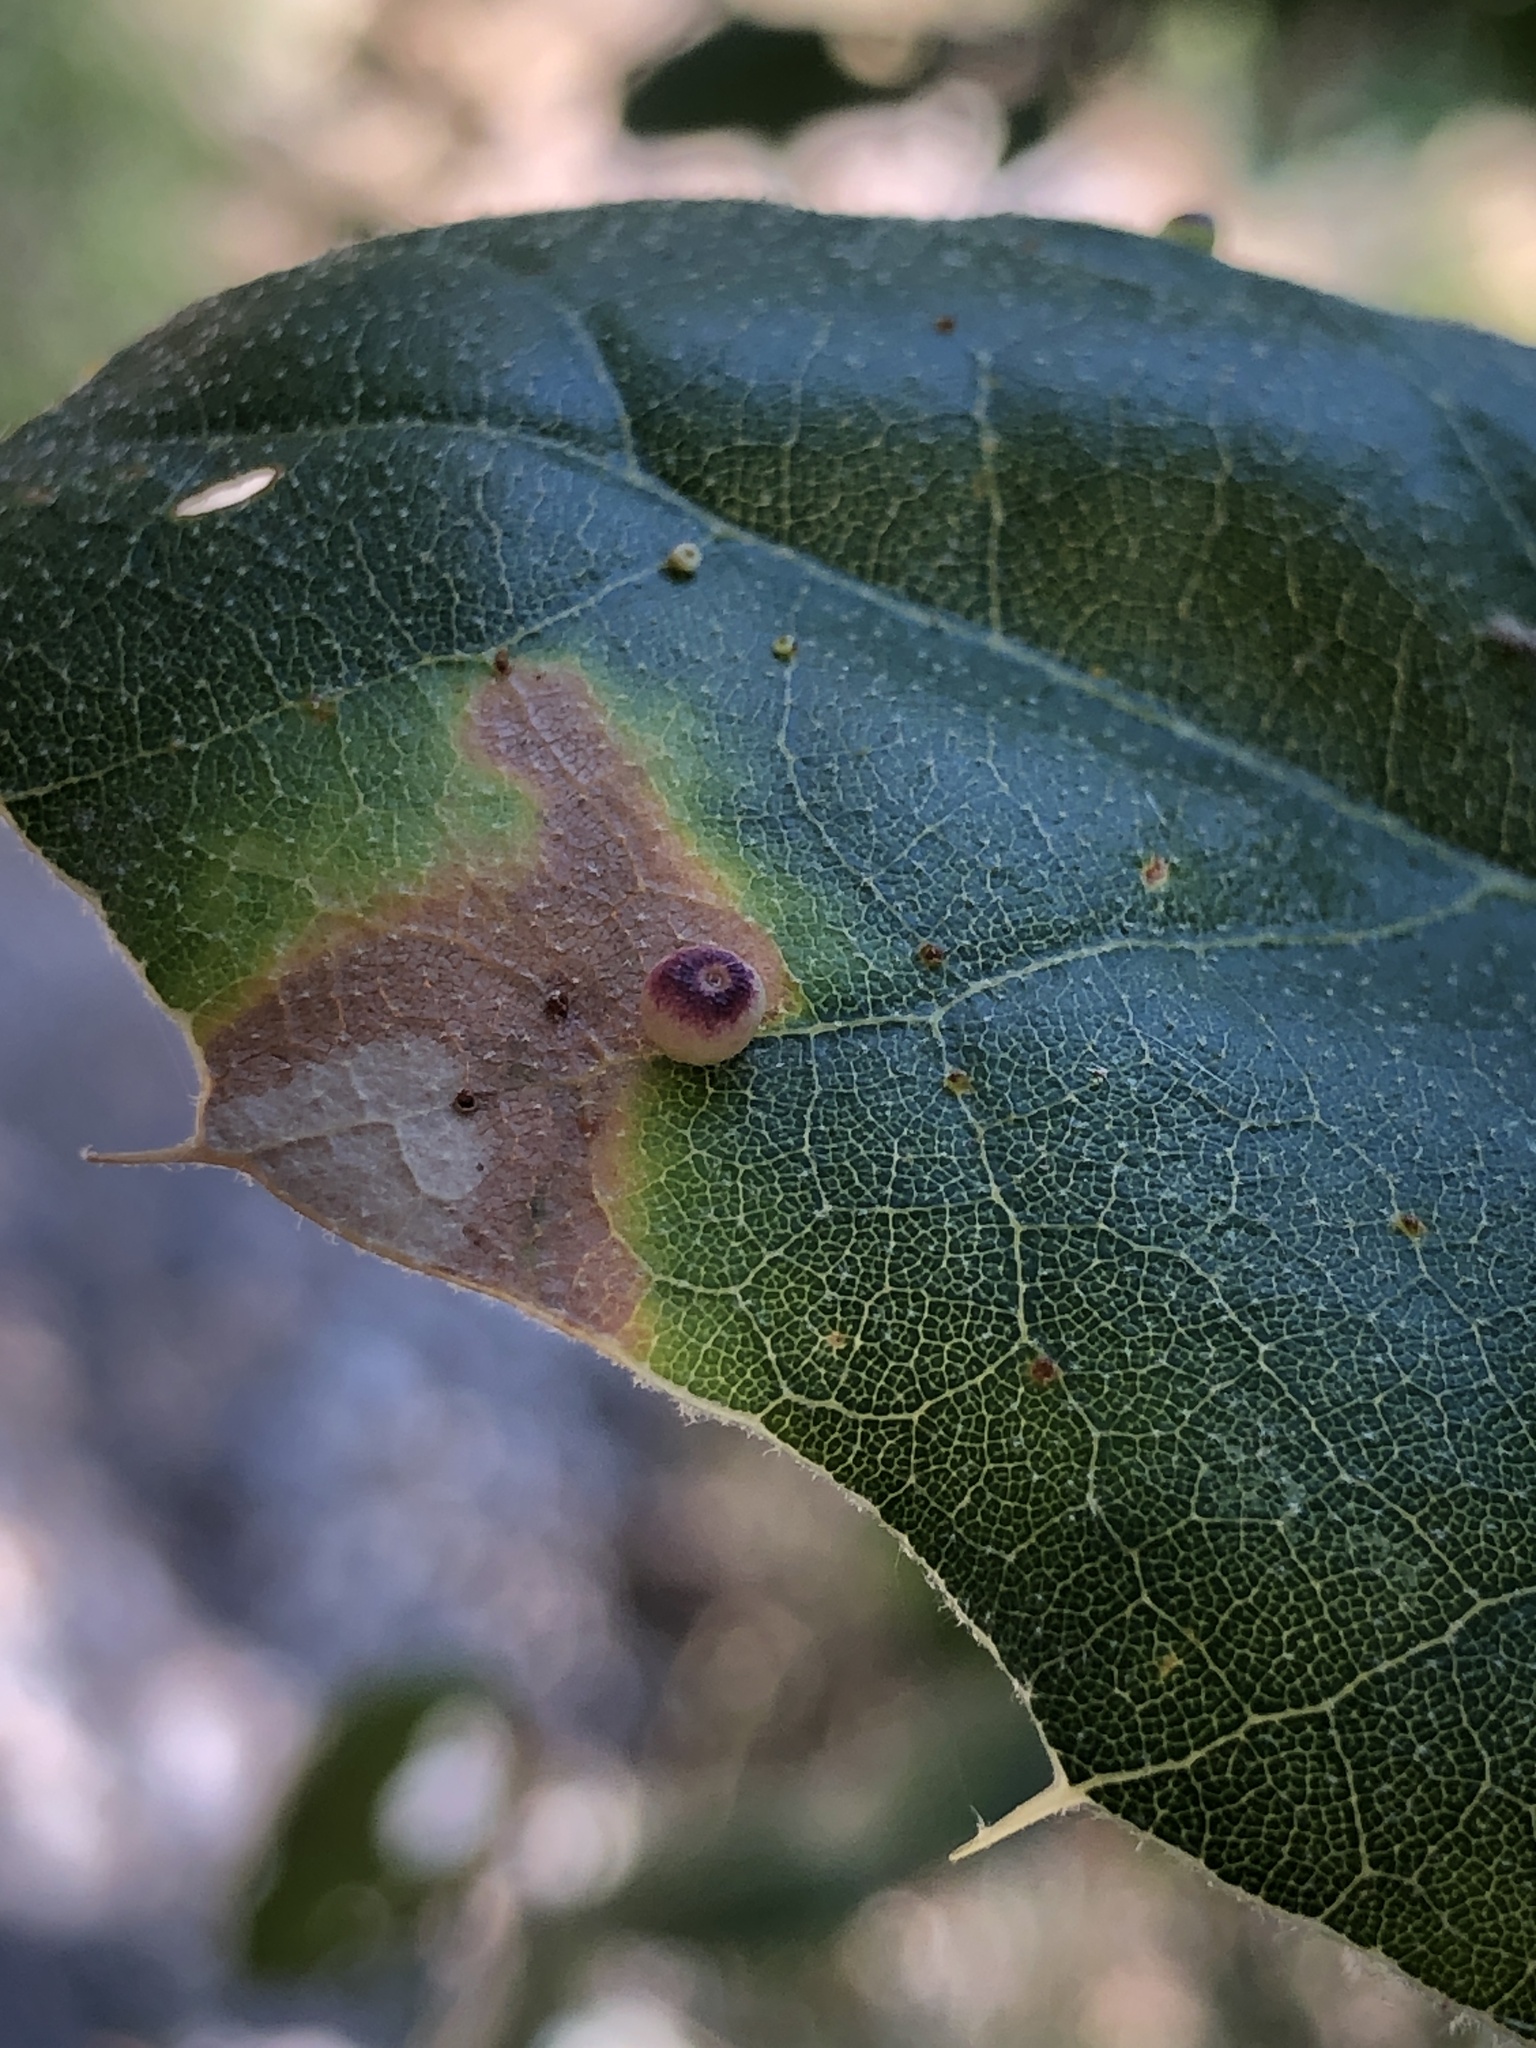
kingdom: Animalia
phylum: Arthropoda
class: Insecta
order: Hymenoptera
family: Cynipidae
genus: Dryocosmus
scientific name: Dryocosmus
